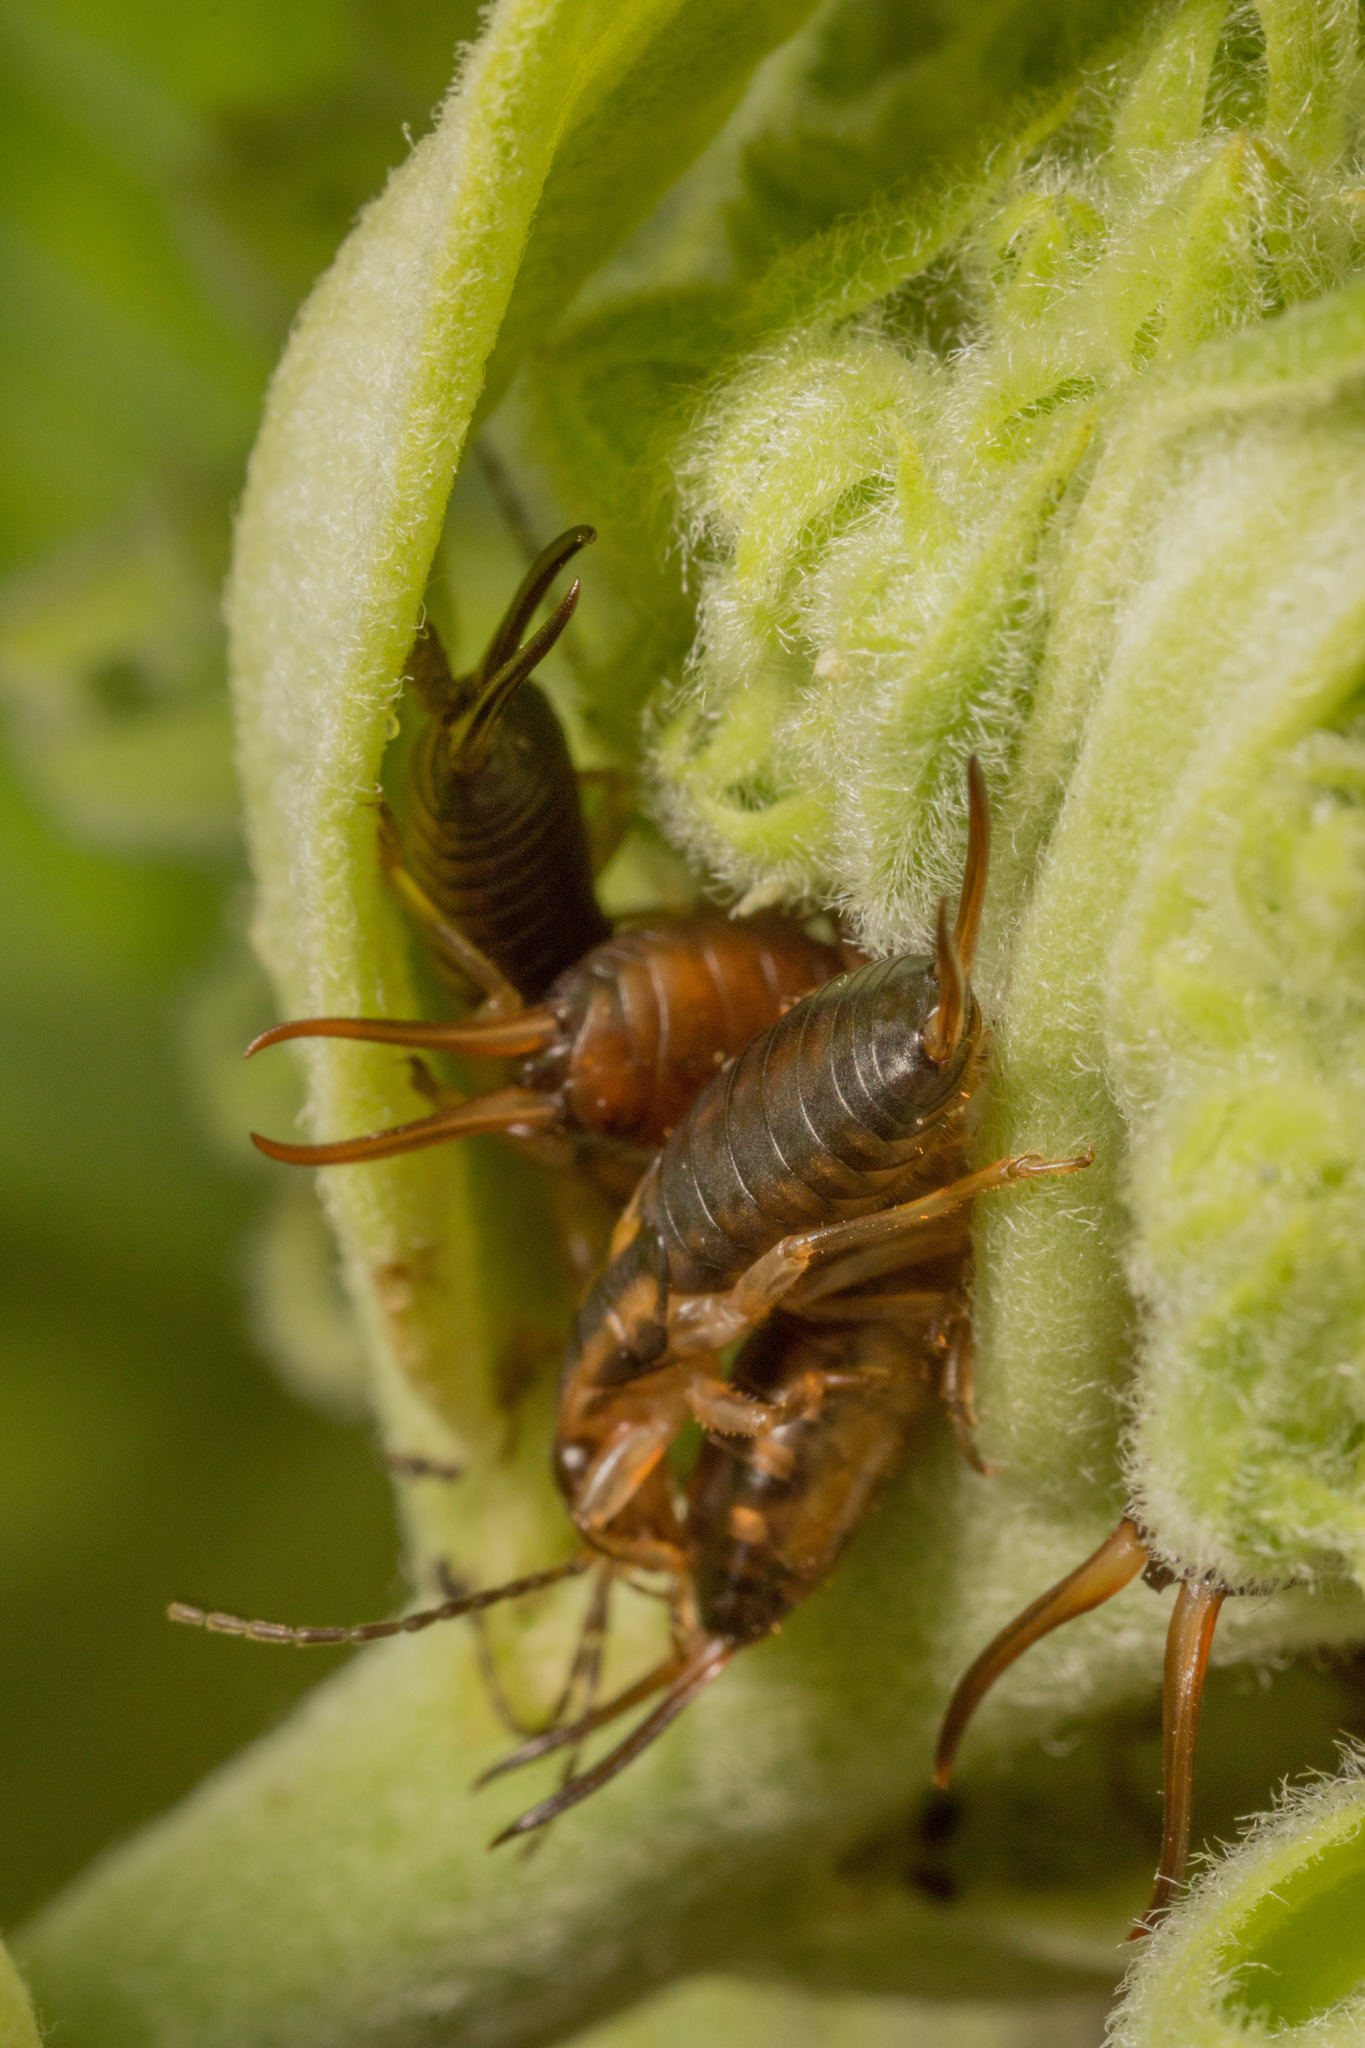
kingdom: Animalia
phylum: Arthropoda
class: Insecta
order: Dermaptera
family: Forficulidae
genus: Forficula
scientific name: Forficula
